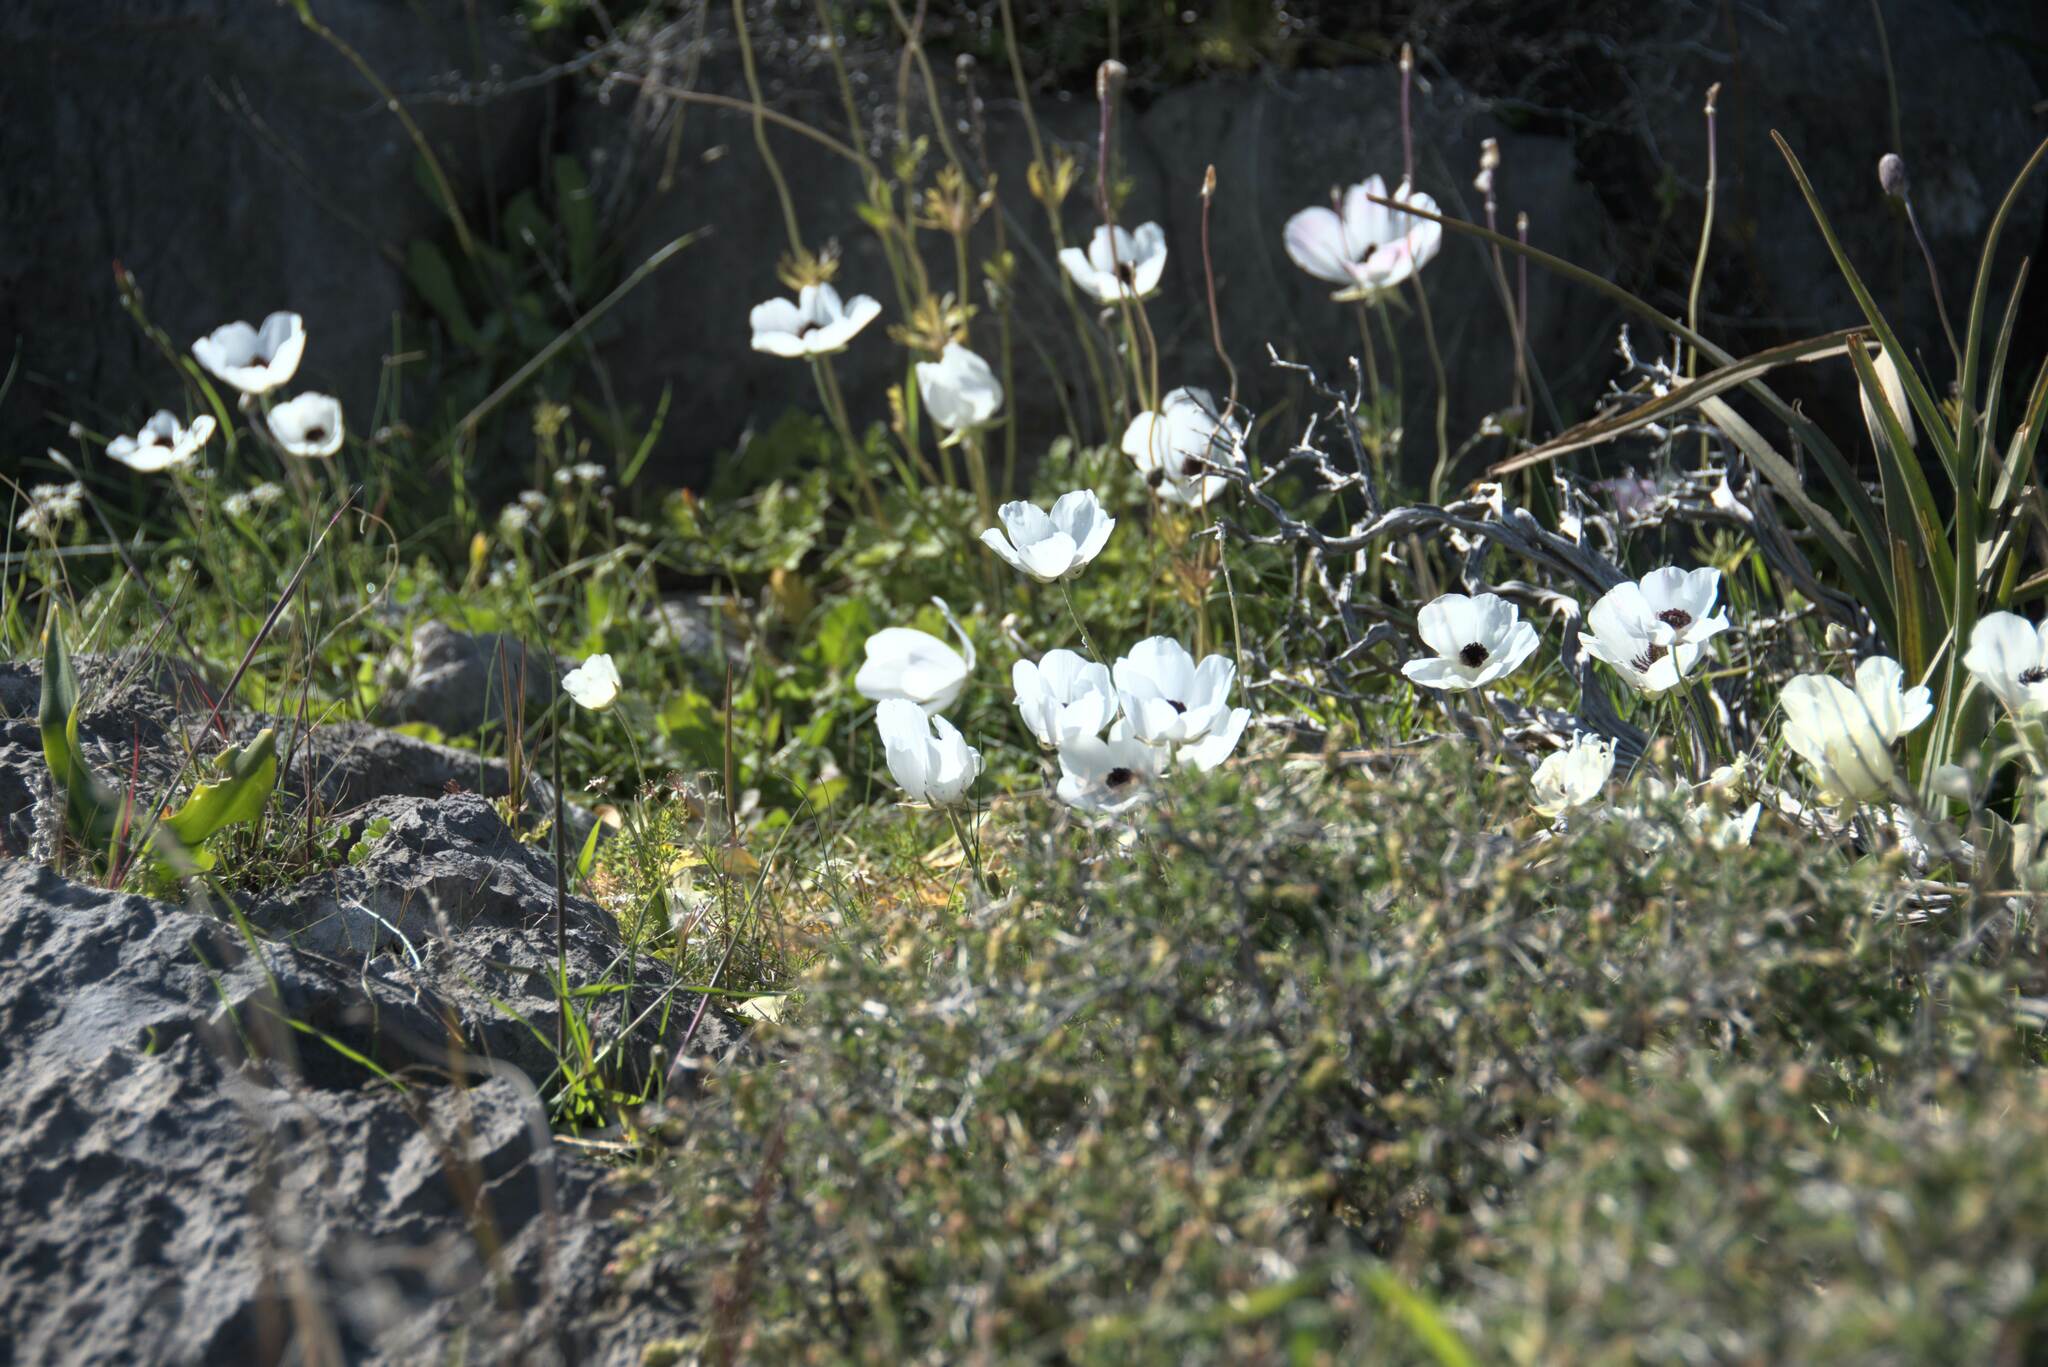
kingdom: Plantae
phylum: Tracheophyta
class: Magnoliopsida
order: Ranunculales
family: Ranunculaceae
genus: Anemone
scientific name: Anemone coronaria
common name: Poppy anemone
